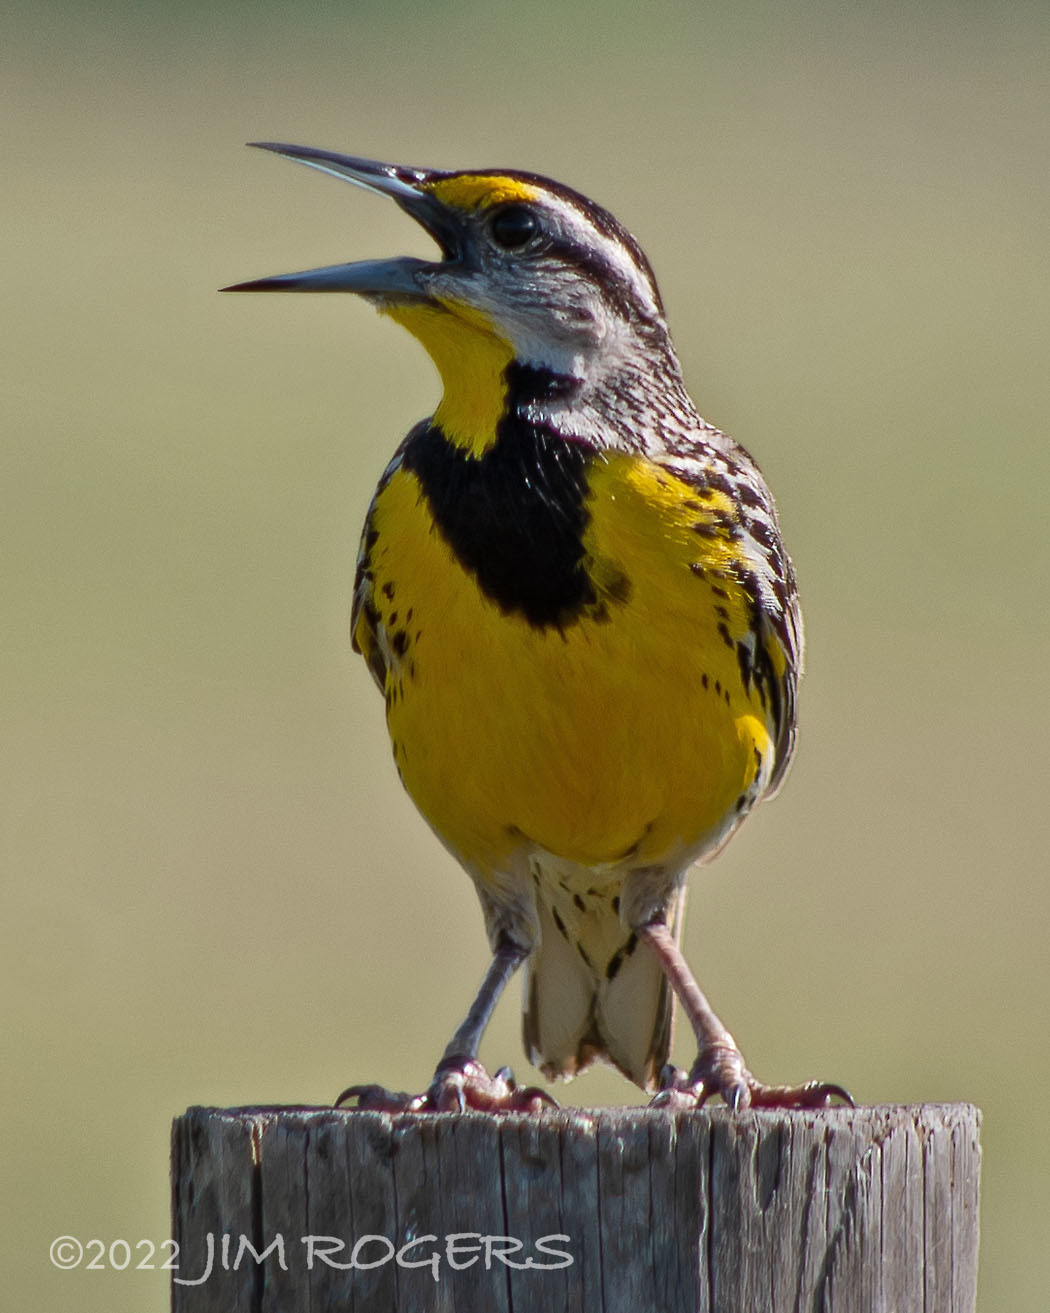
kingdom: Animalia
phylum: Chordata
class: Aves
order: Passeriformes
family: Icteridae
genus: Sturnella
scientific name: Sturnella magna
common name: Eastern meadowlark
